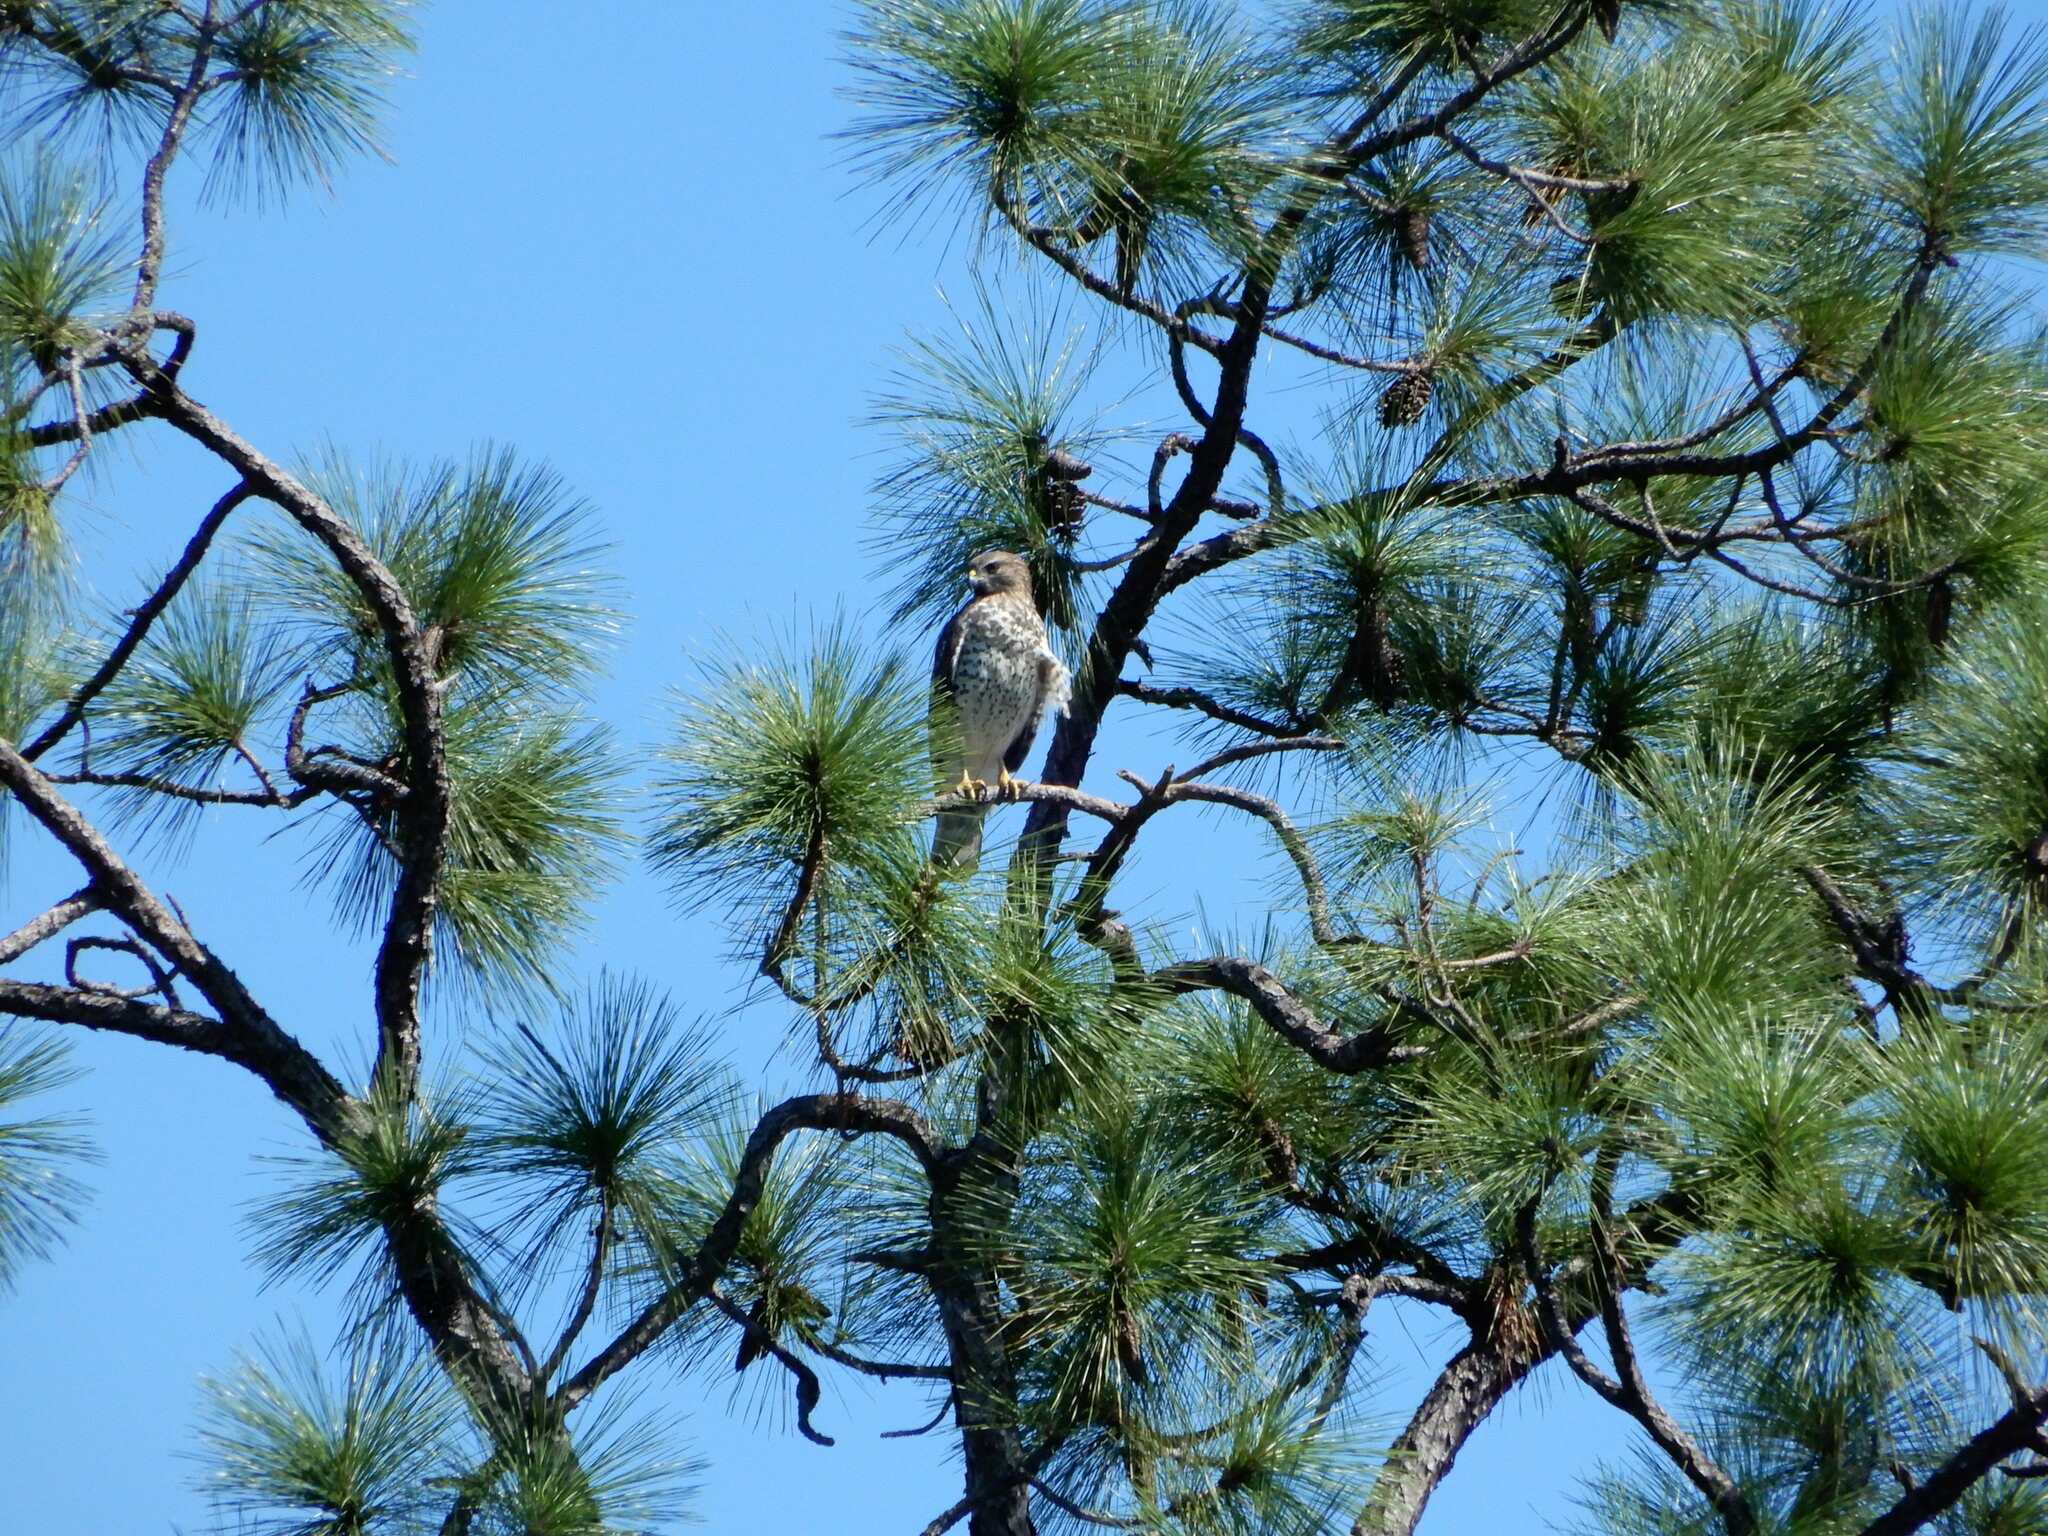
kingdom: Animalia
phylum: Chordata
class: Aves
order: Accipitriformes
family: Accipitridae
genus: Buteo
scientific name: Buteo lineatus
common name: Red-shouldered hawk
